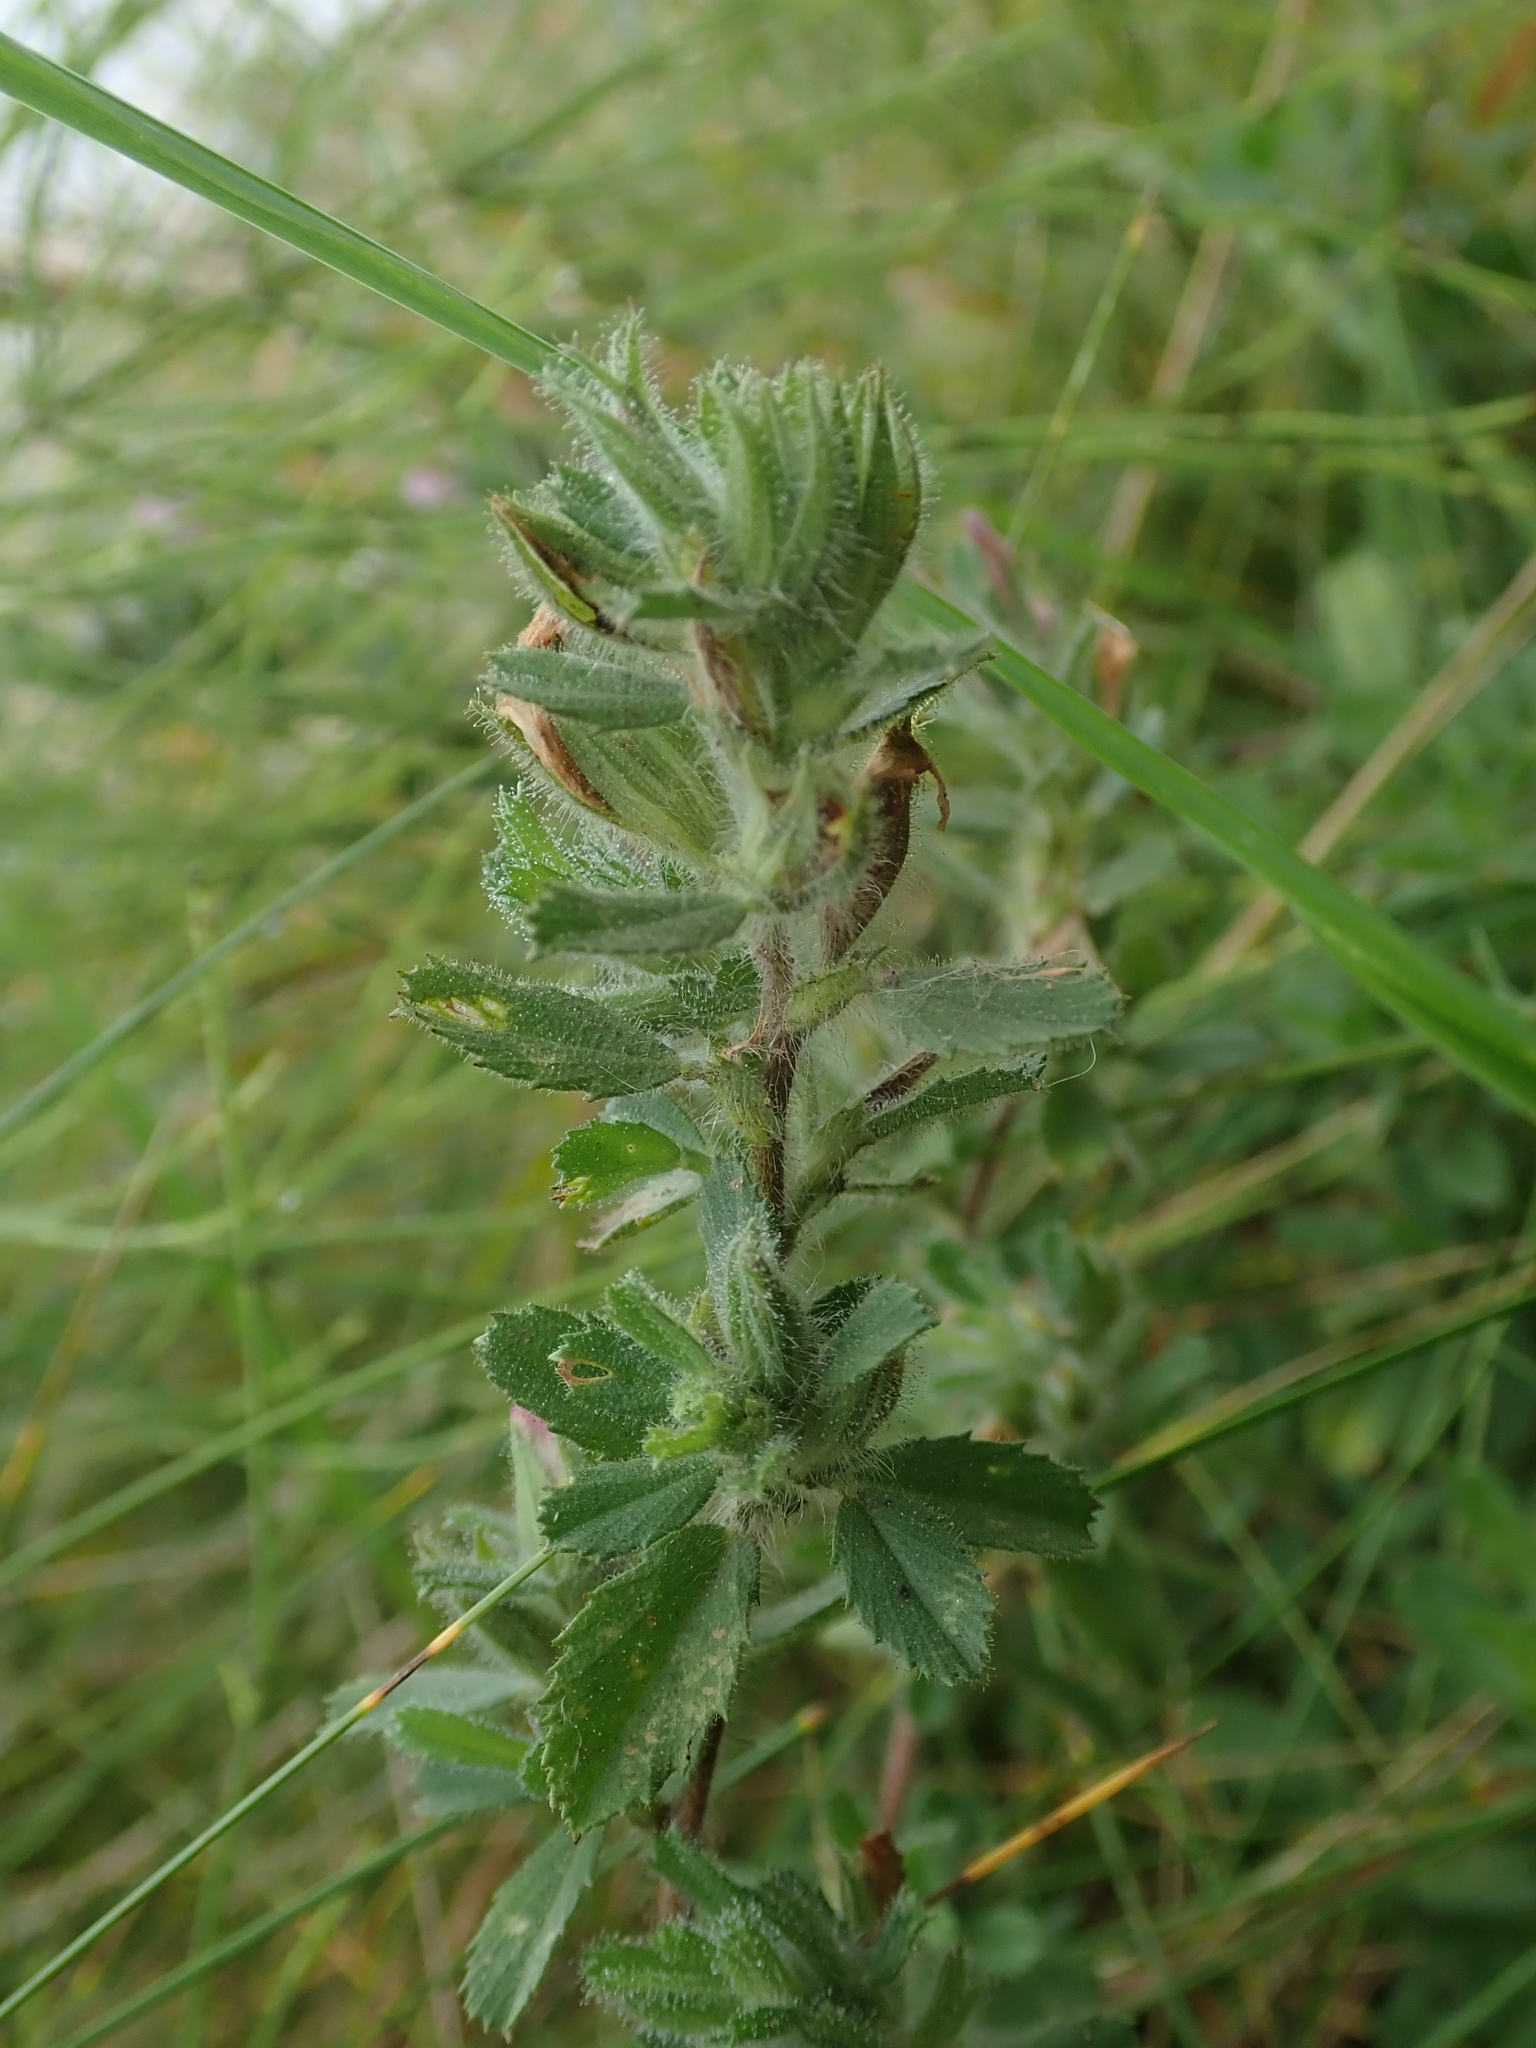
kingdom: Plantae
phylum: Tracheophyta
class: Magnoliopsida
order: Fabales
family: Fabaceae
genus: Ononis
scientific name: Ononis spinosa
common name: Spiny restharrow
